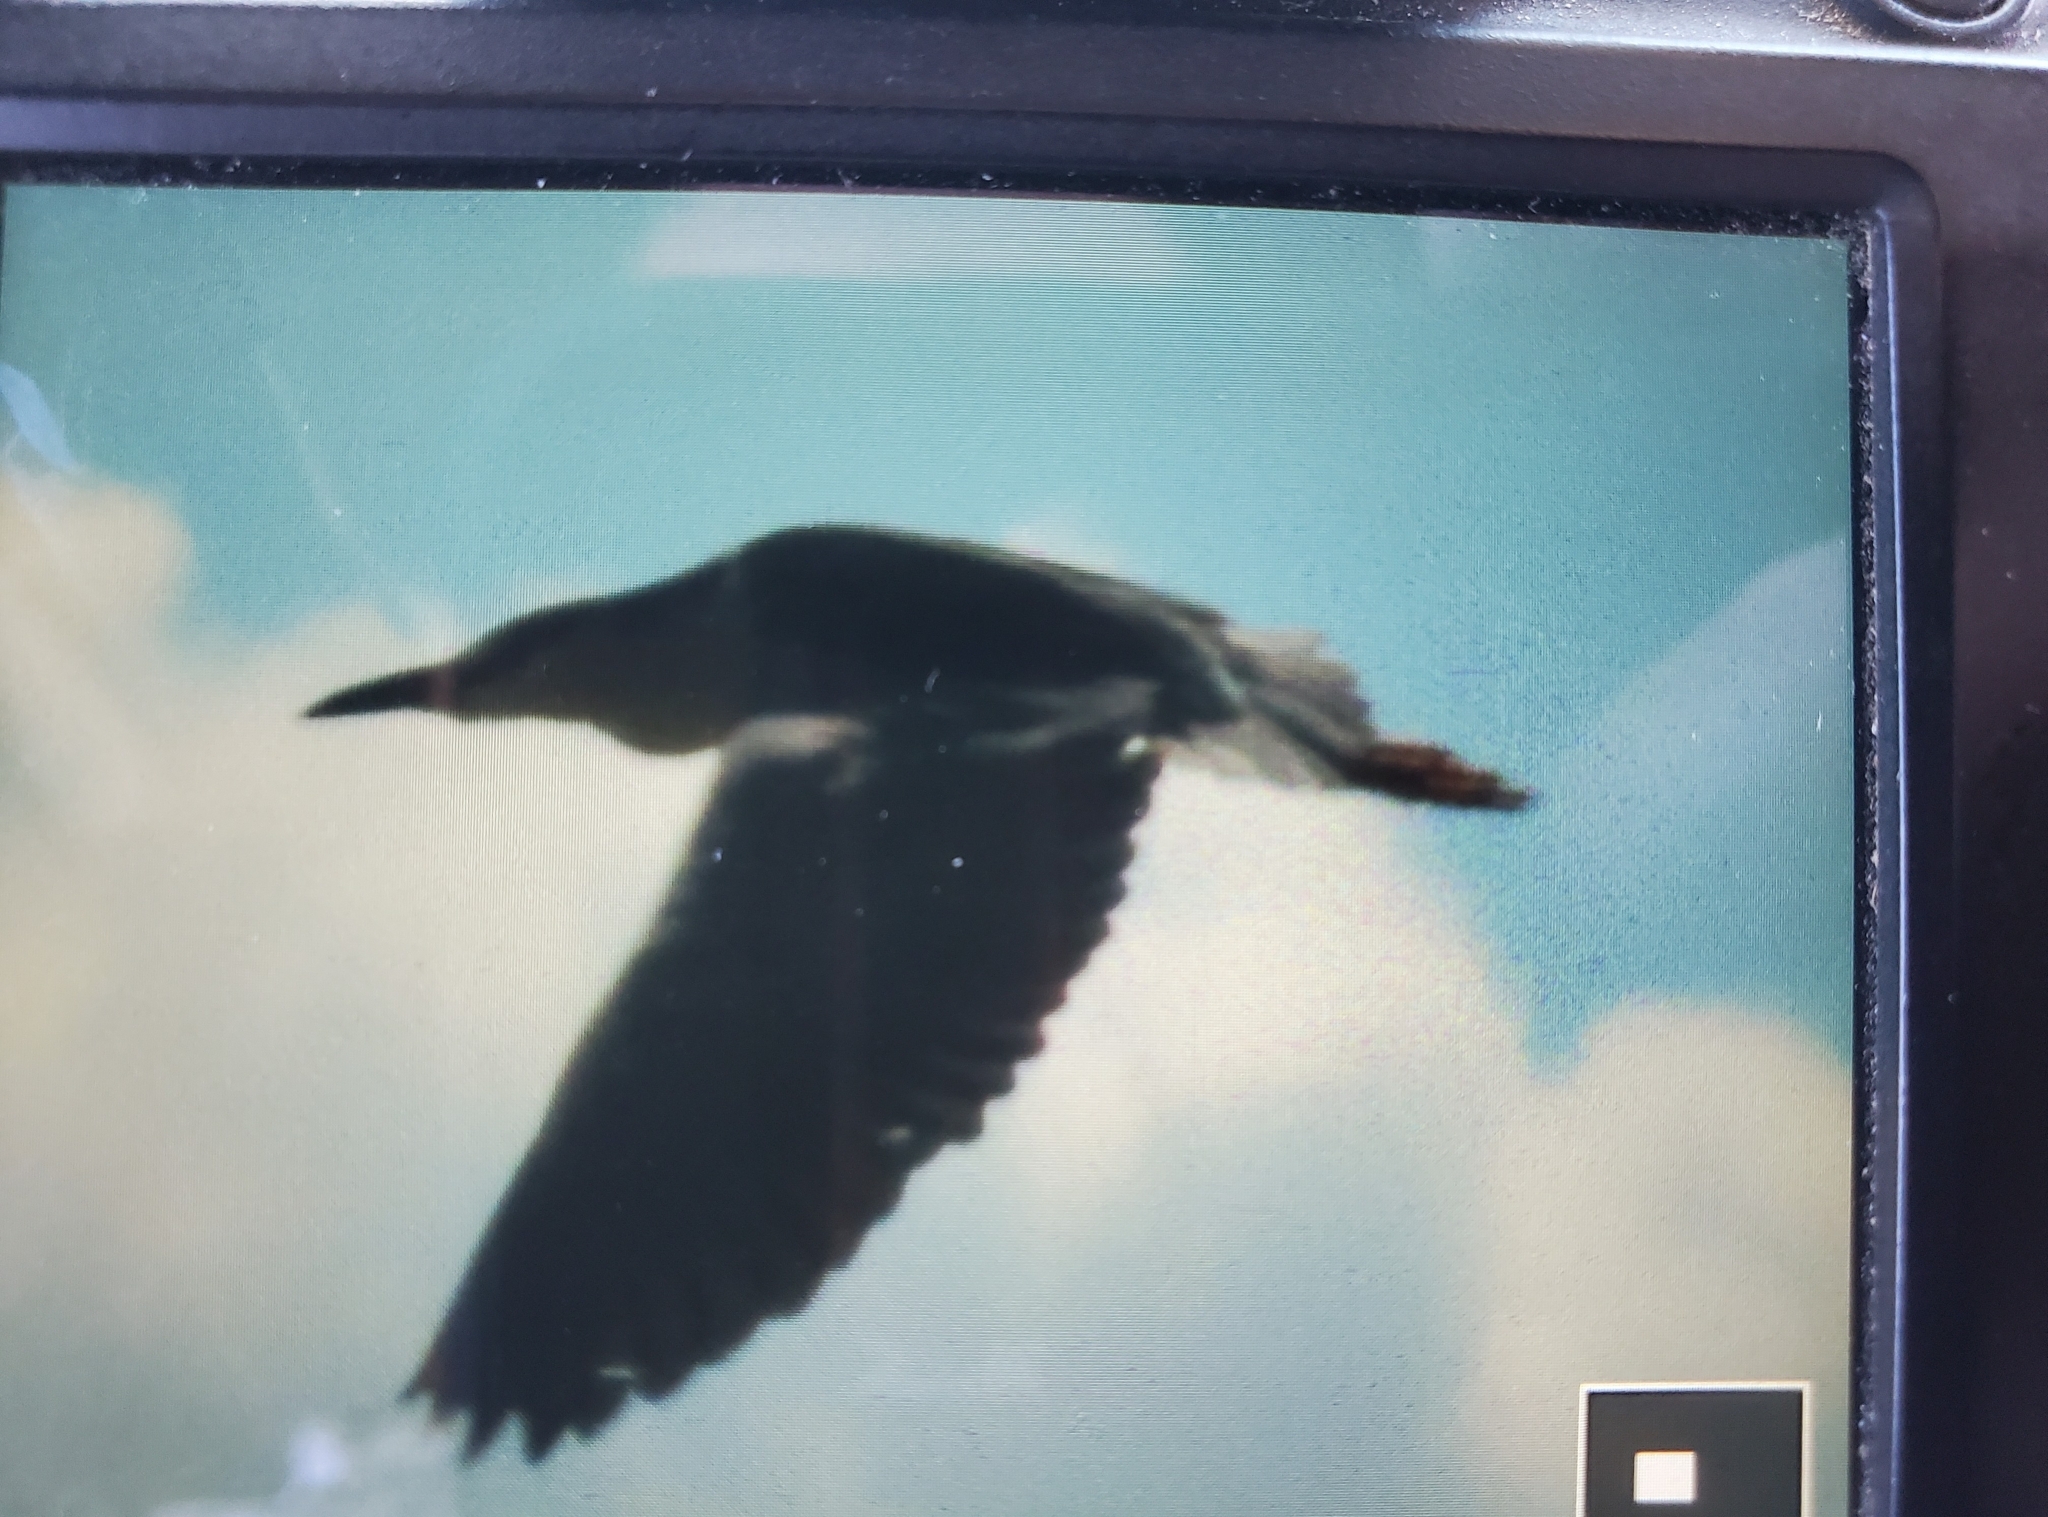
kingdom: Animalia
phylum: Chordata
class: Aves
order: Pelecaniformes
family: Ardeidae
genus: Nycticorax
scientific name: Nycticorax nycticorax
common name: Black-crowned night heron
